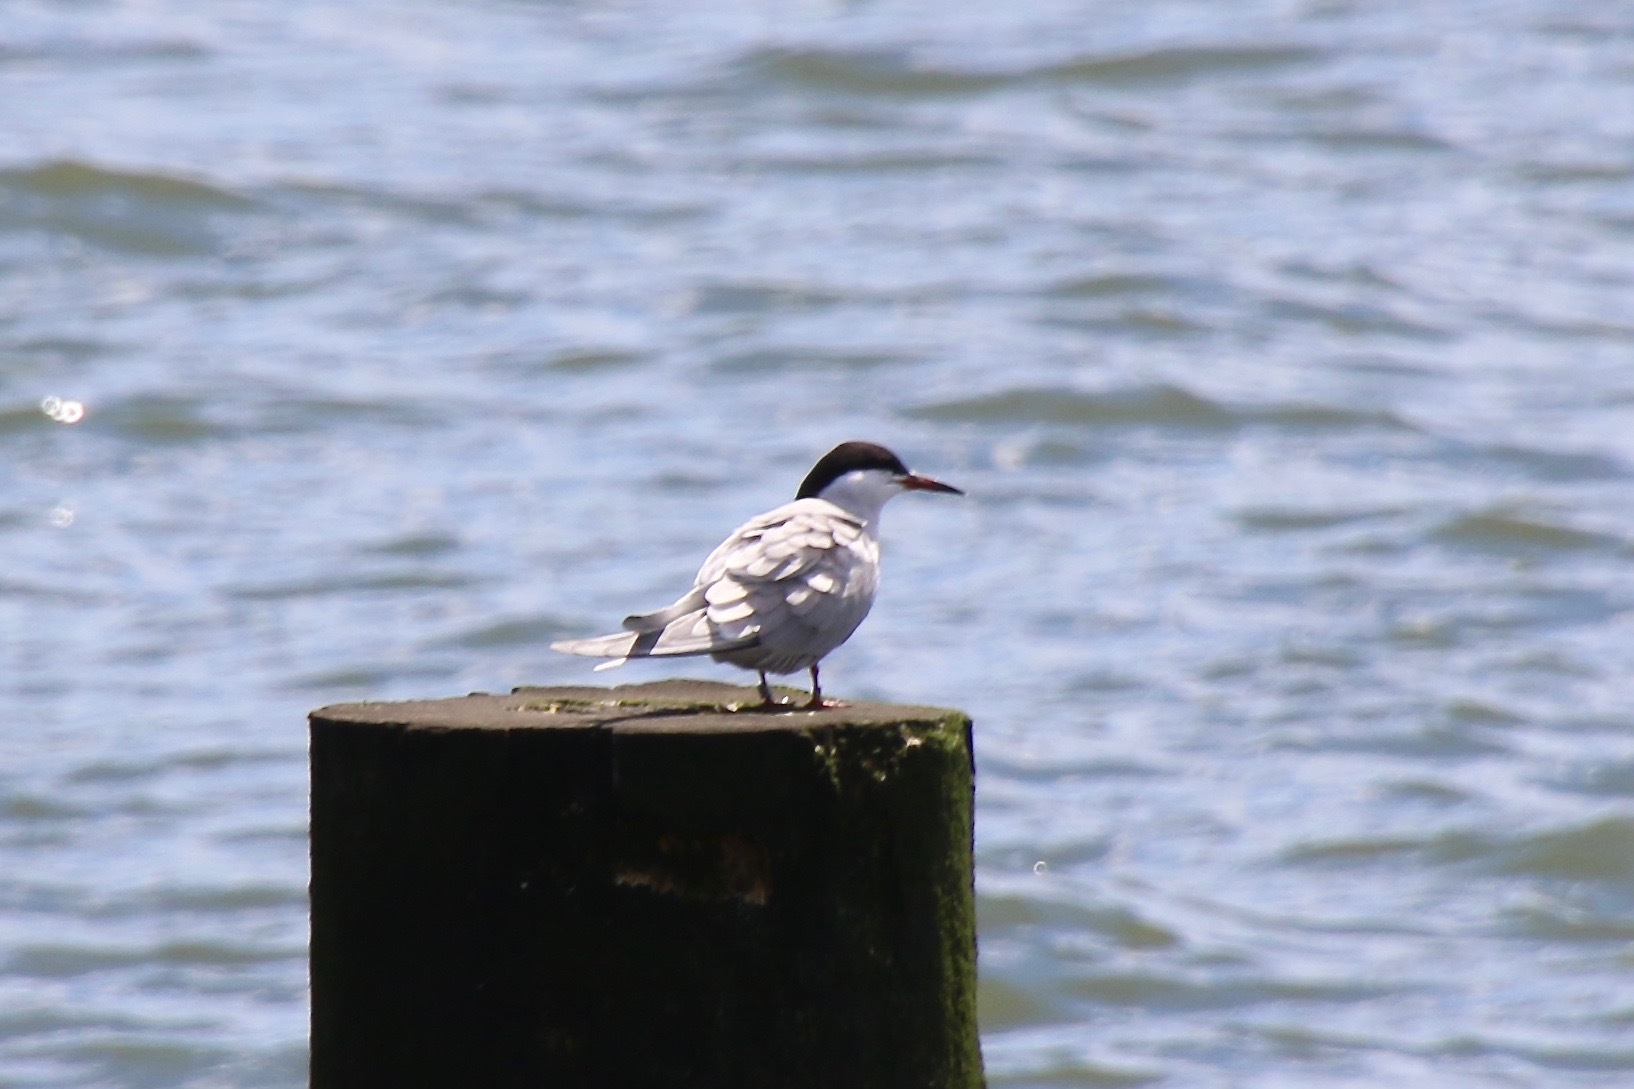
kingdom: Animalia
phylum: Chordata
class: Aves
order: Charadriiformes
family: Laridae
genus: Sterna
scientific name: Sterna hirundo
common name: Common tern
